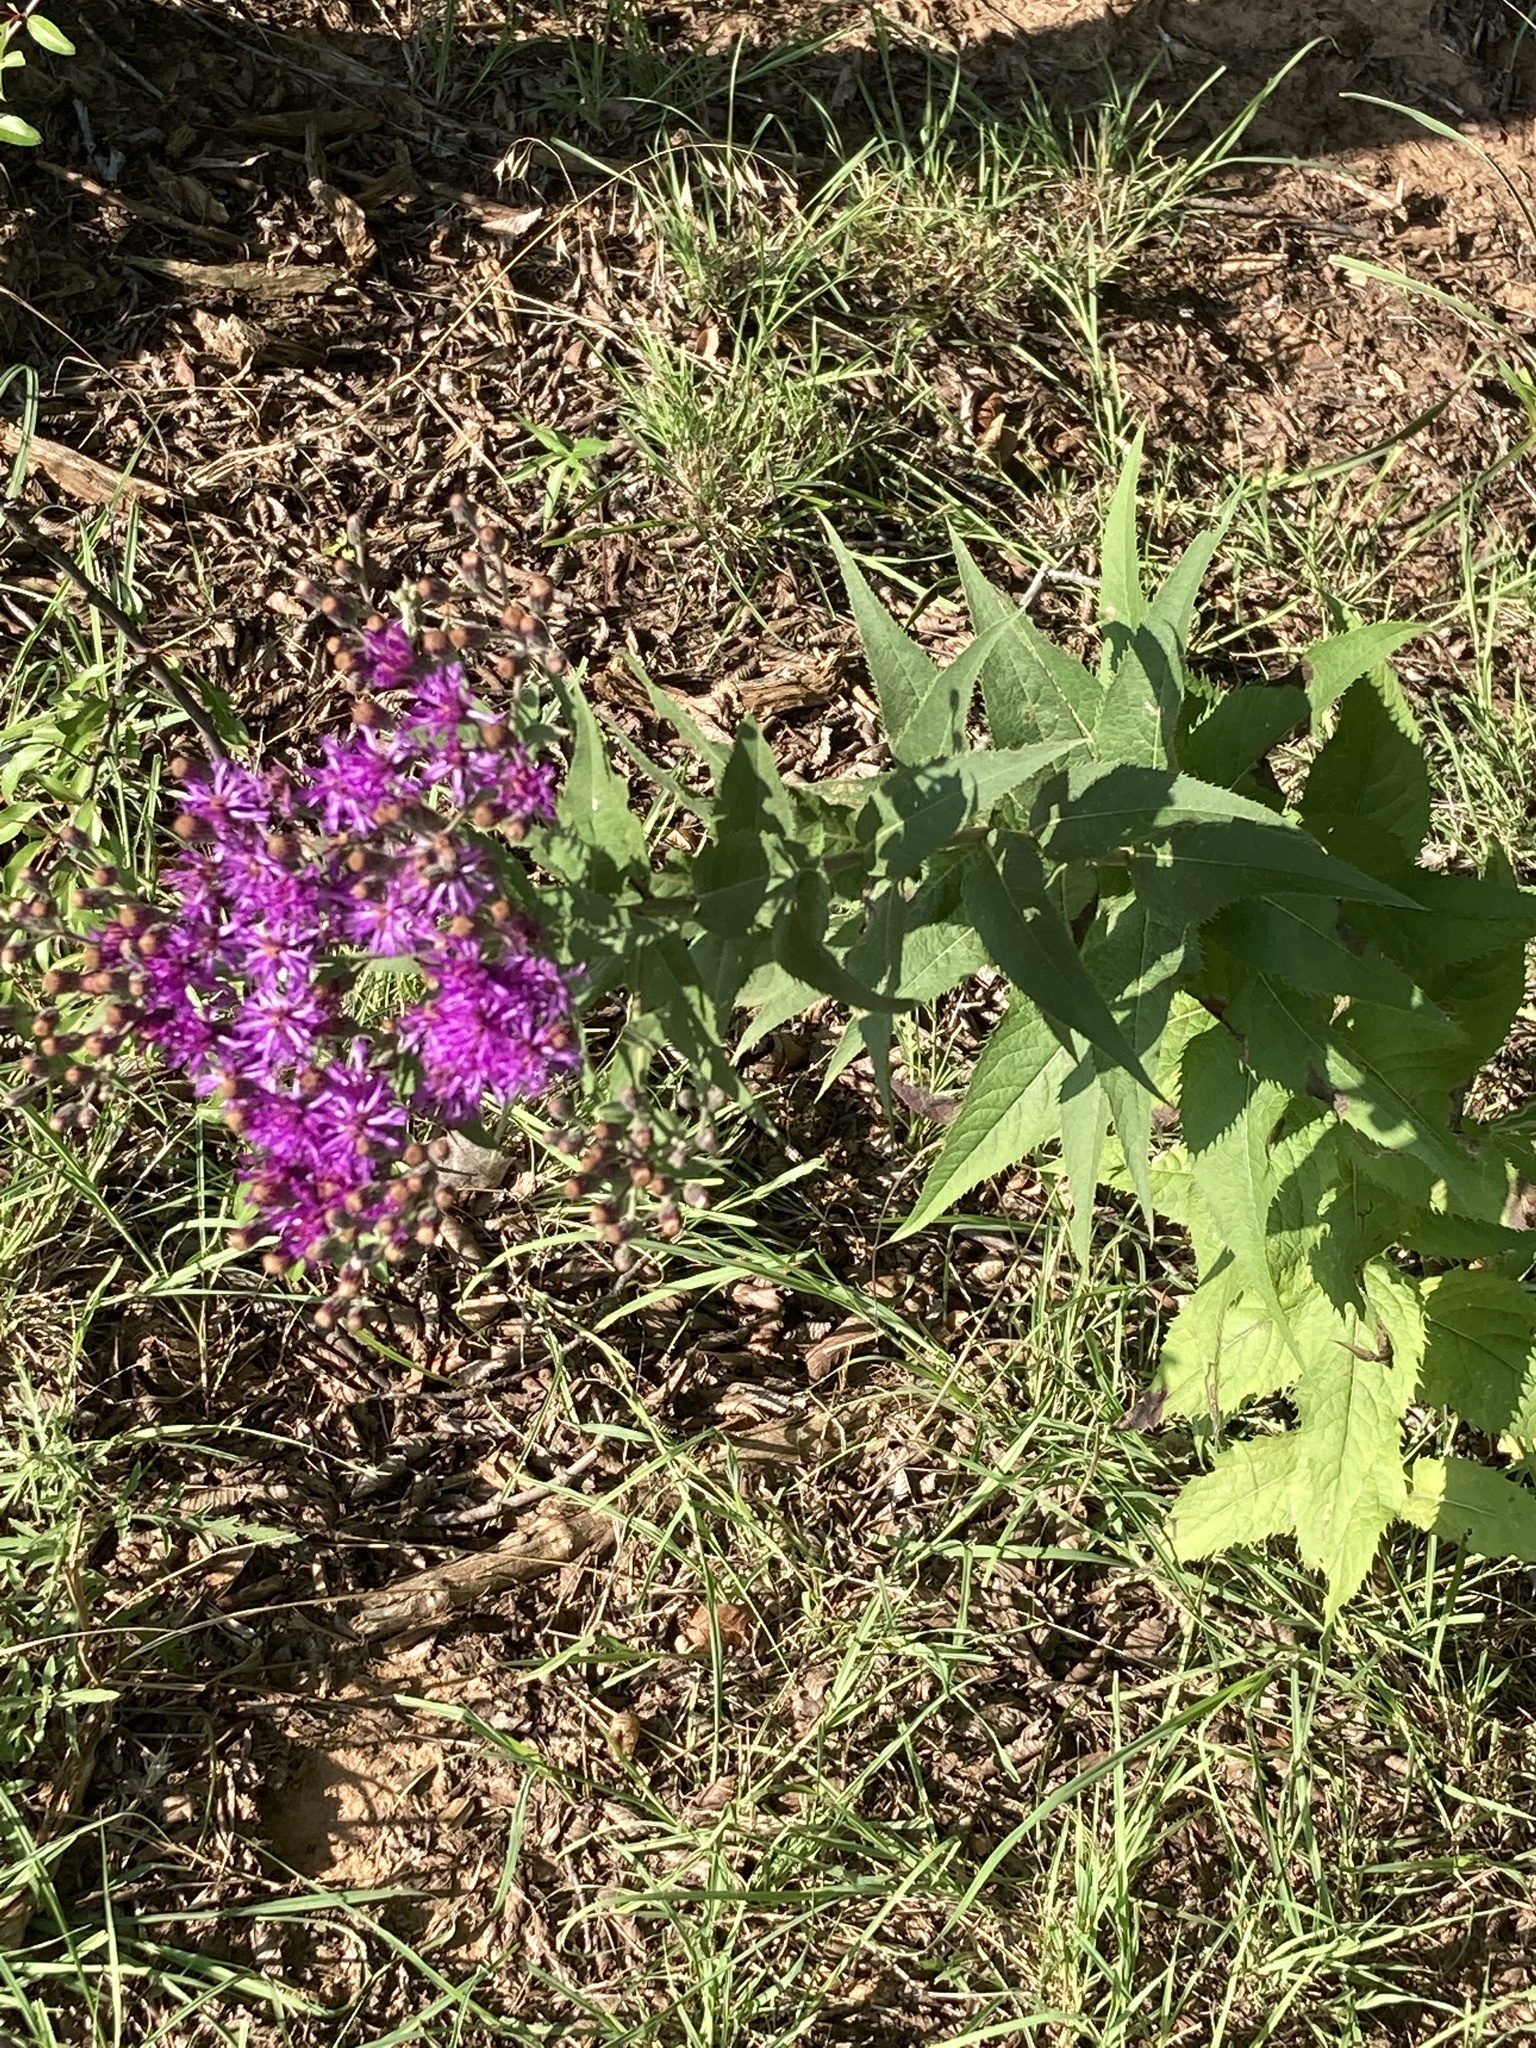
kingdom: Plantae
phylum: Tracheophyta
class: Magnoliopsida
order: Asterales
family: Asteraceae
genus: Vernonia
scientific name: Vernonia baldwinii
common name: Western ironweed
